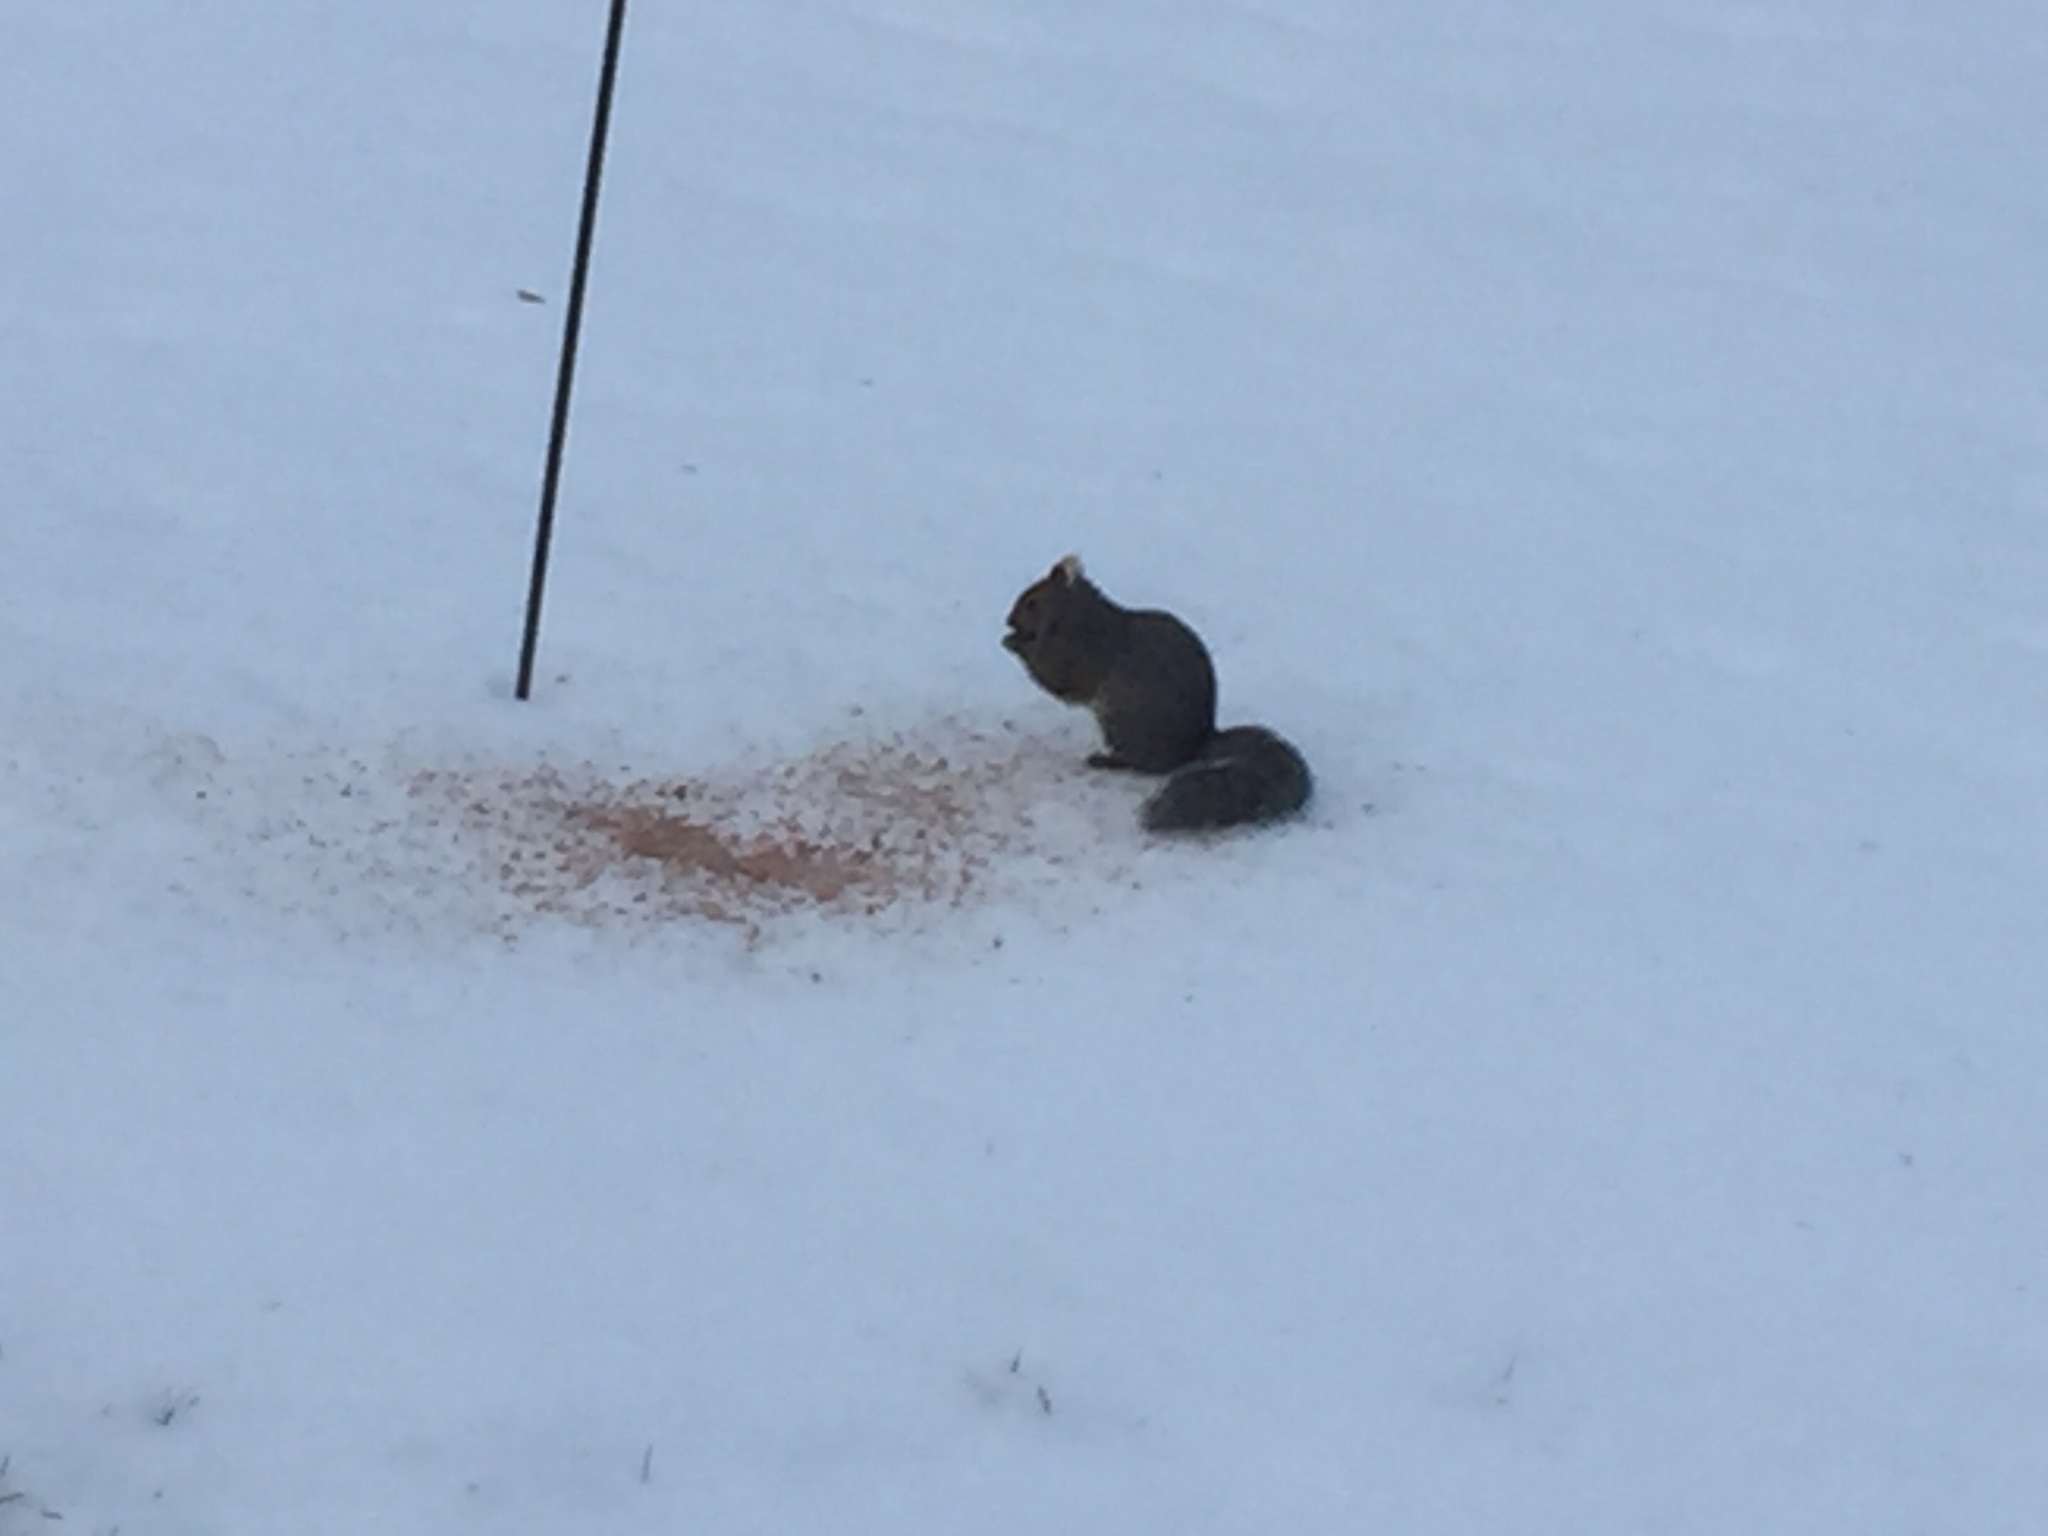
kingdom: Animalia
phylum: Chordata
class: Mammalia
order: Rodentia
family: Sciuridae
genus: Sciurus
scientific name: Sciurus carolinensis
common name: Eastern gray squirrel
